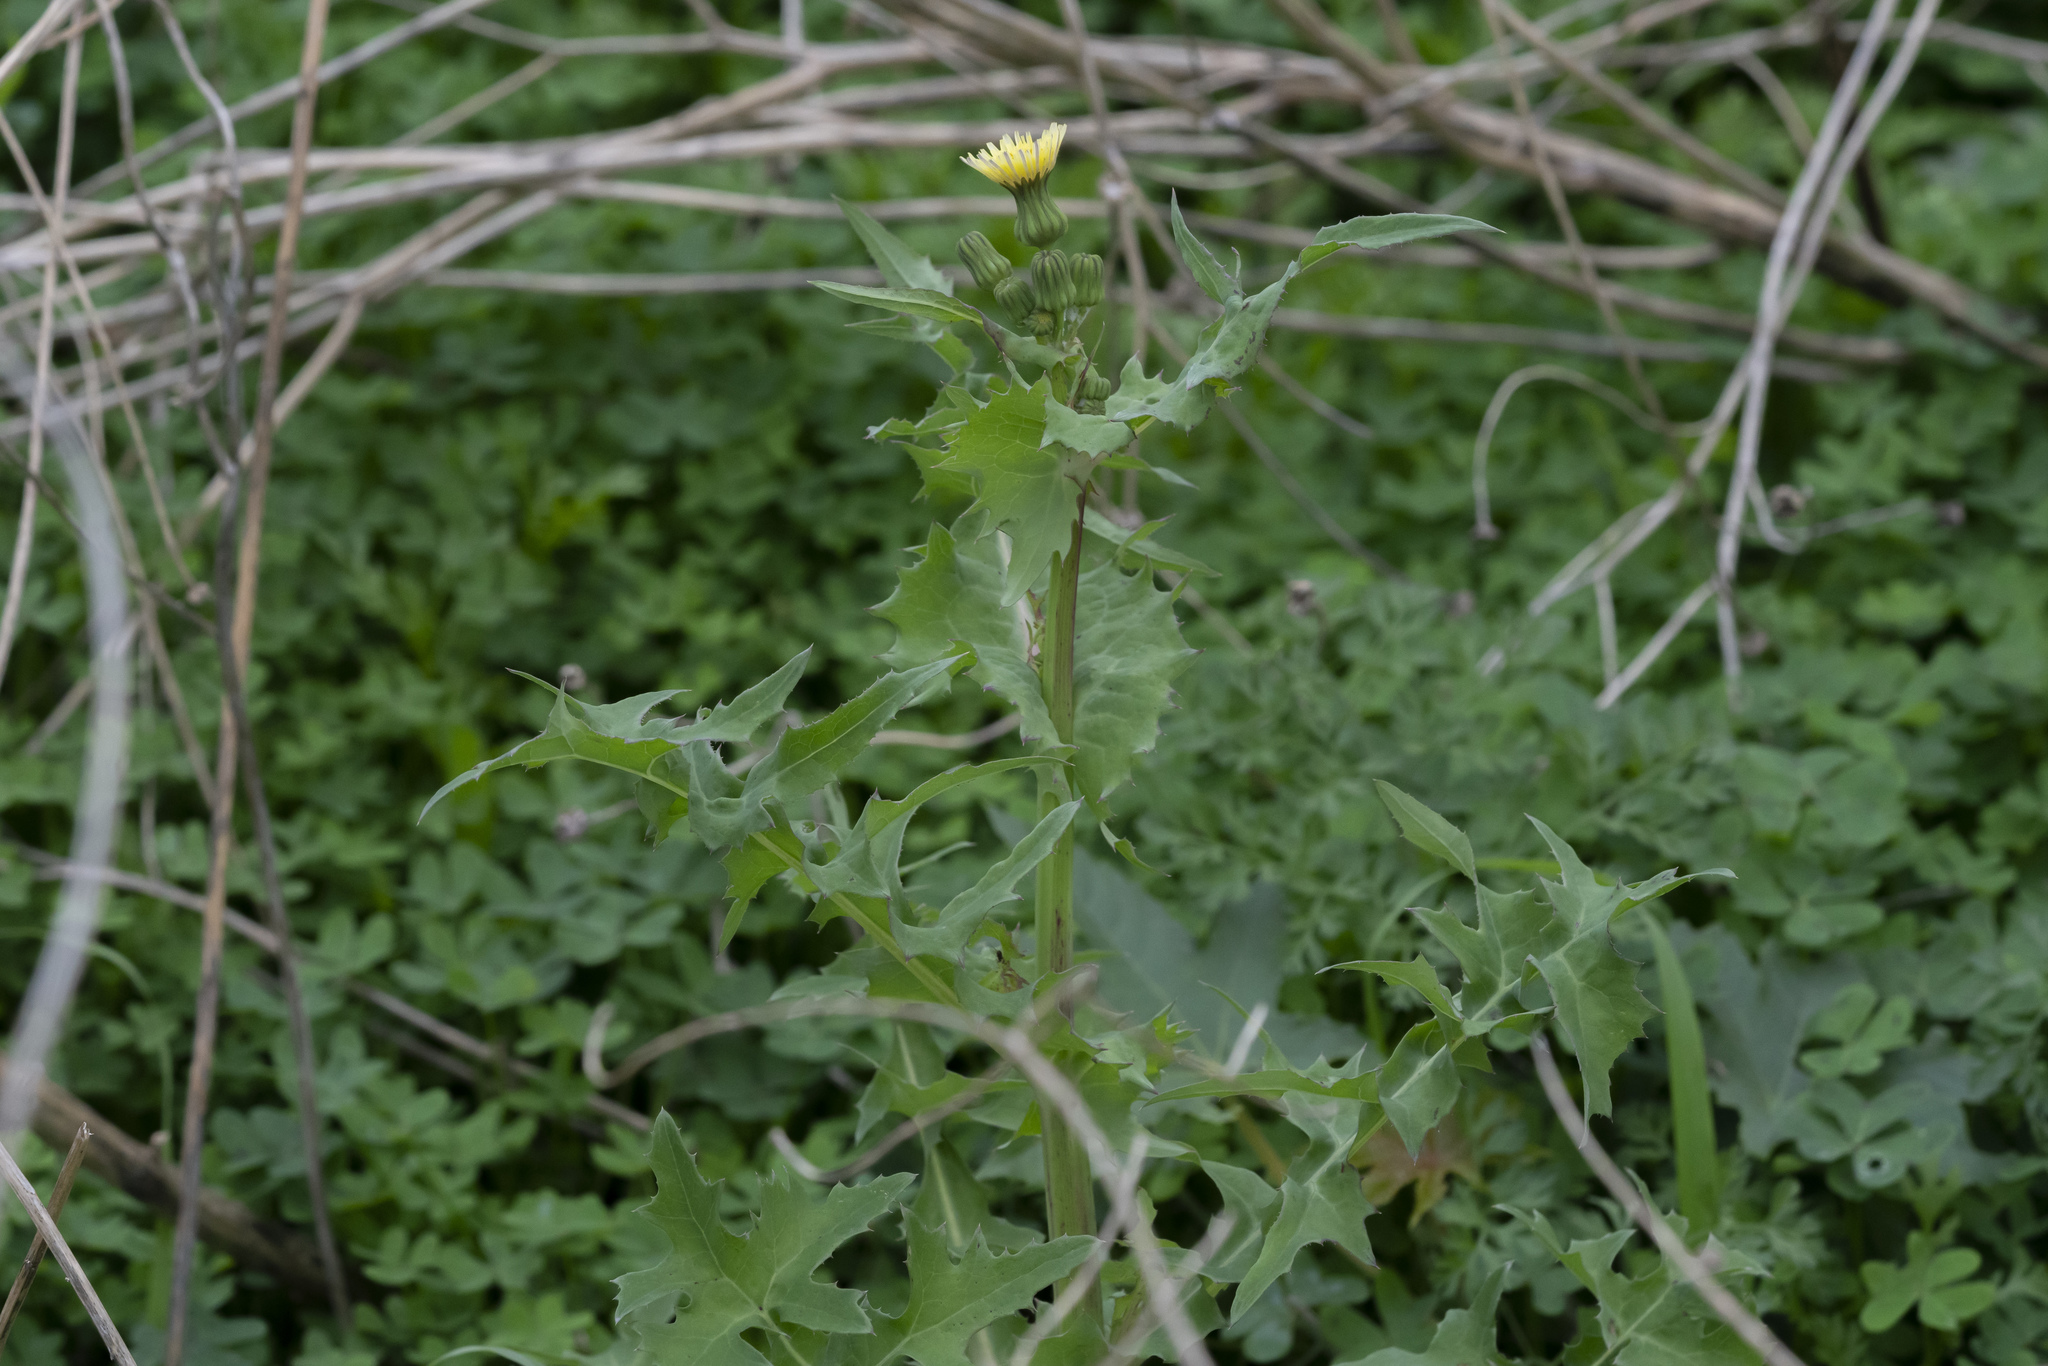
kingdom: Plantae
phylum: Tracheophyta
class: Magnoliopsida
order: Asterales
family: Asteraceae
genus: Sonchus
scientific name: Sonchus oleraceus
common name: Common sowthistle
